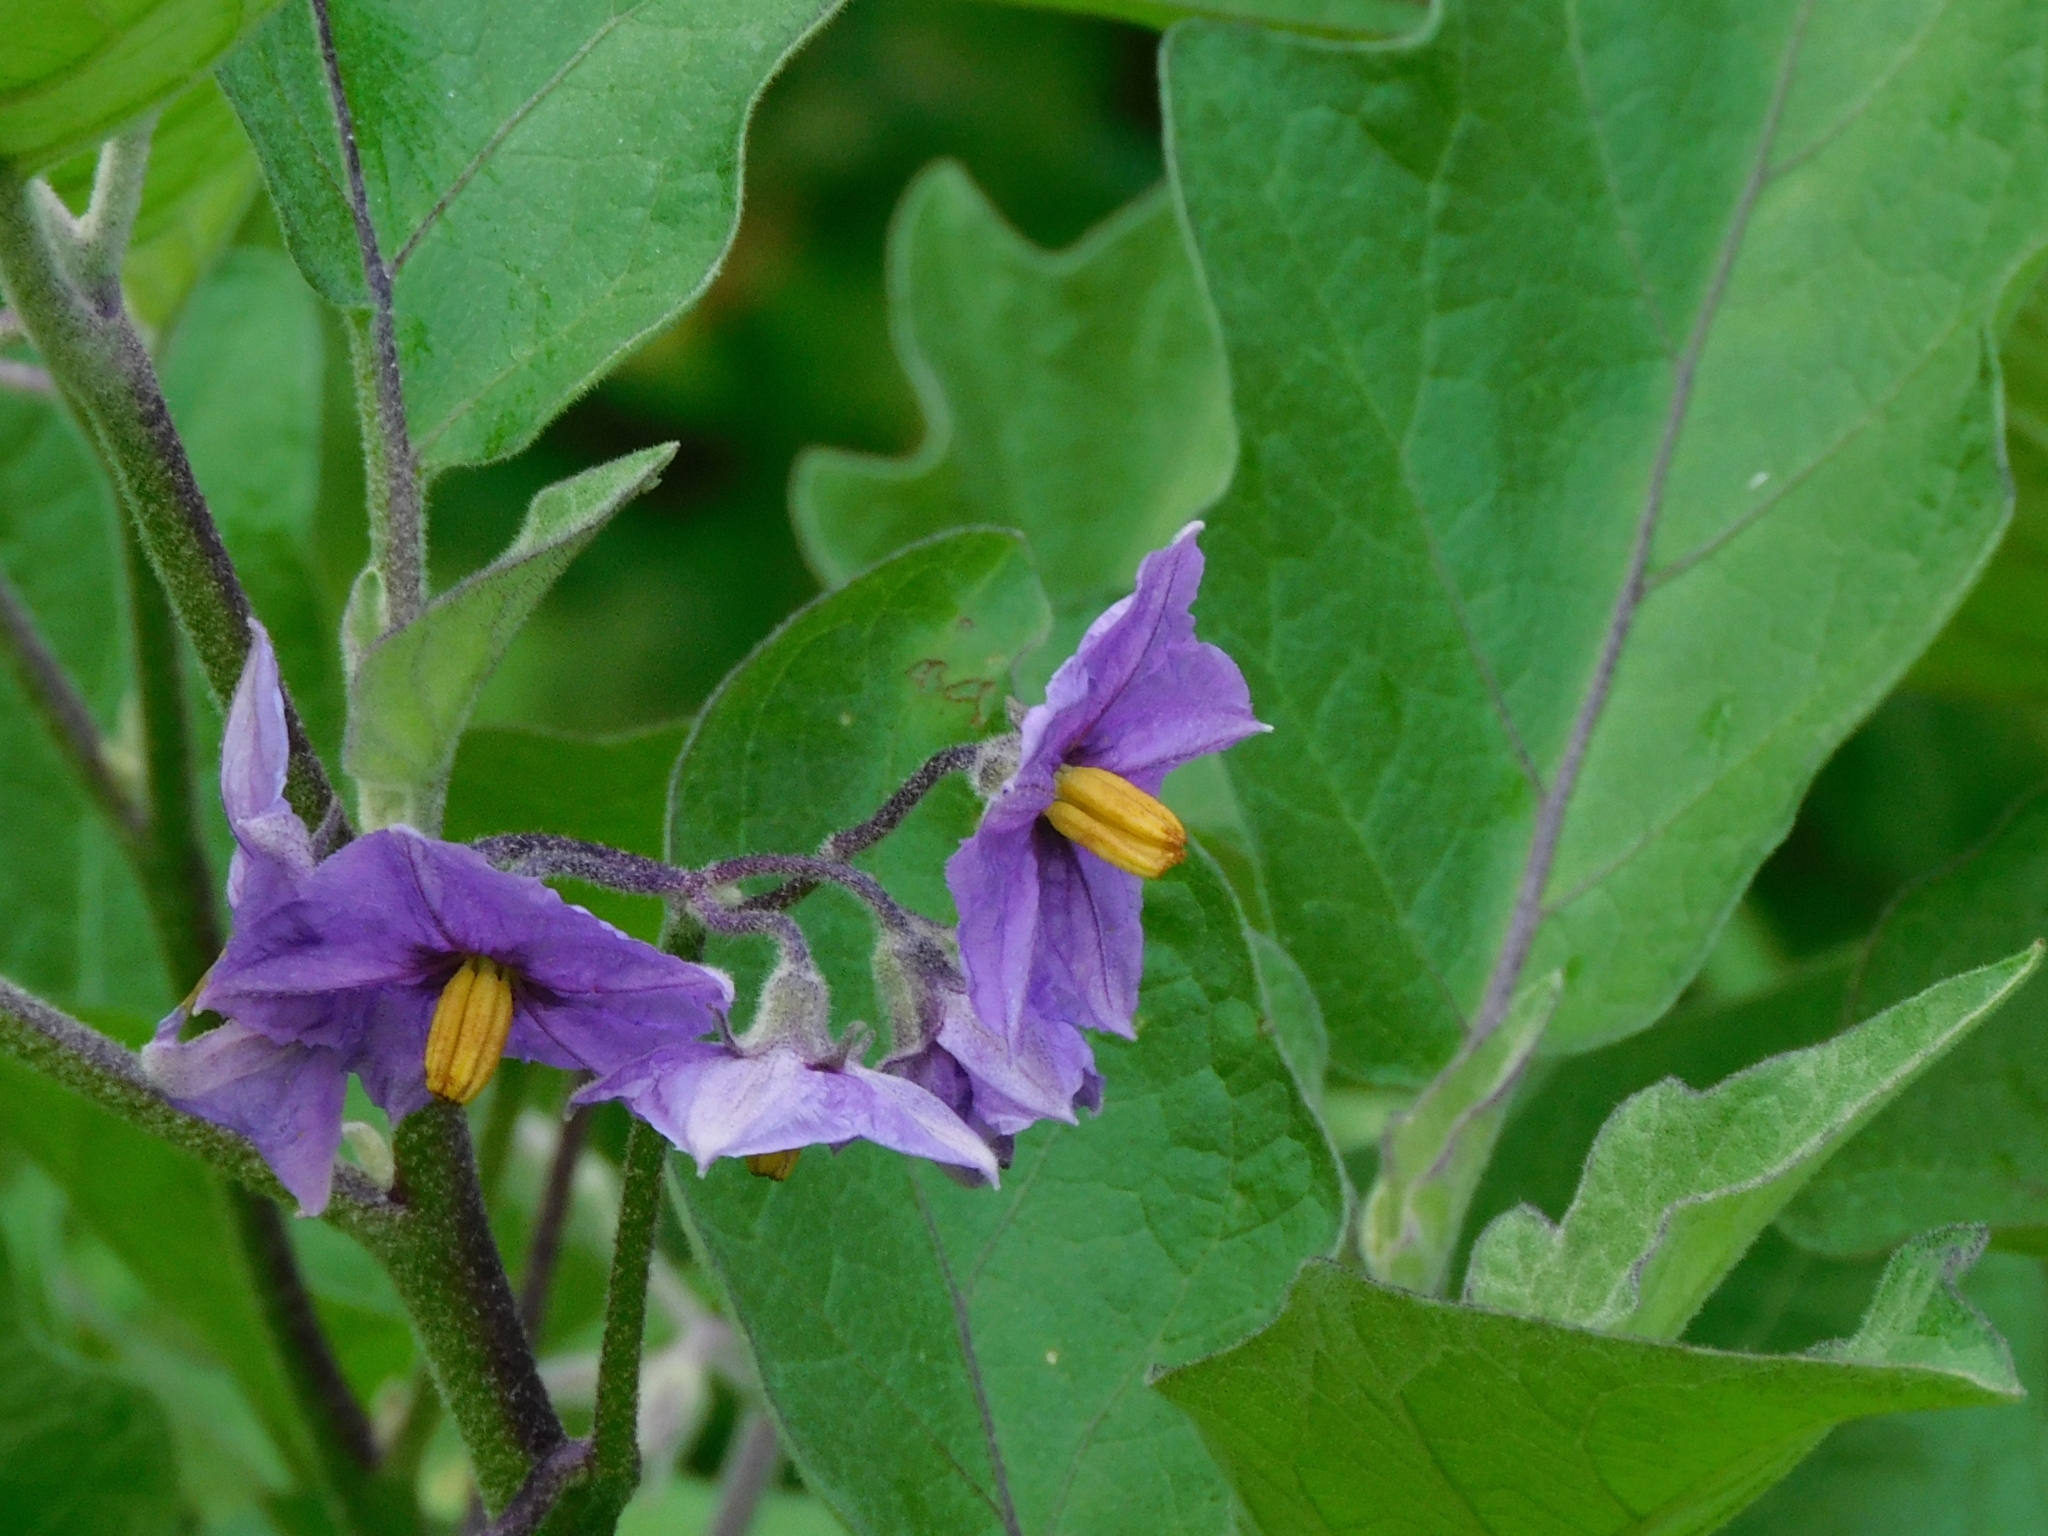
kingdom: Plantae
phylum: Tracheophyta
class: Magnoliopsida
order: Solanales
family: Solanaceae
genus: Solanum
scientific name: Solanum melongena
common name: Eggplant
